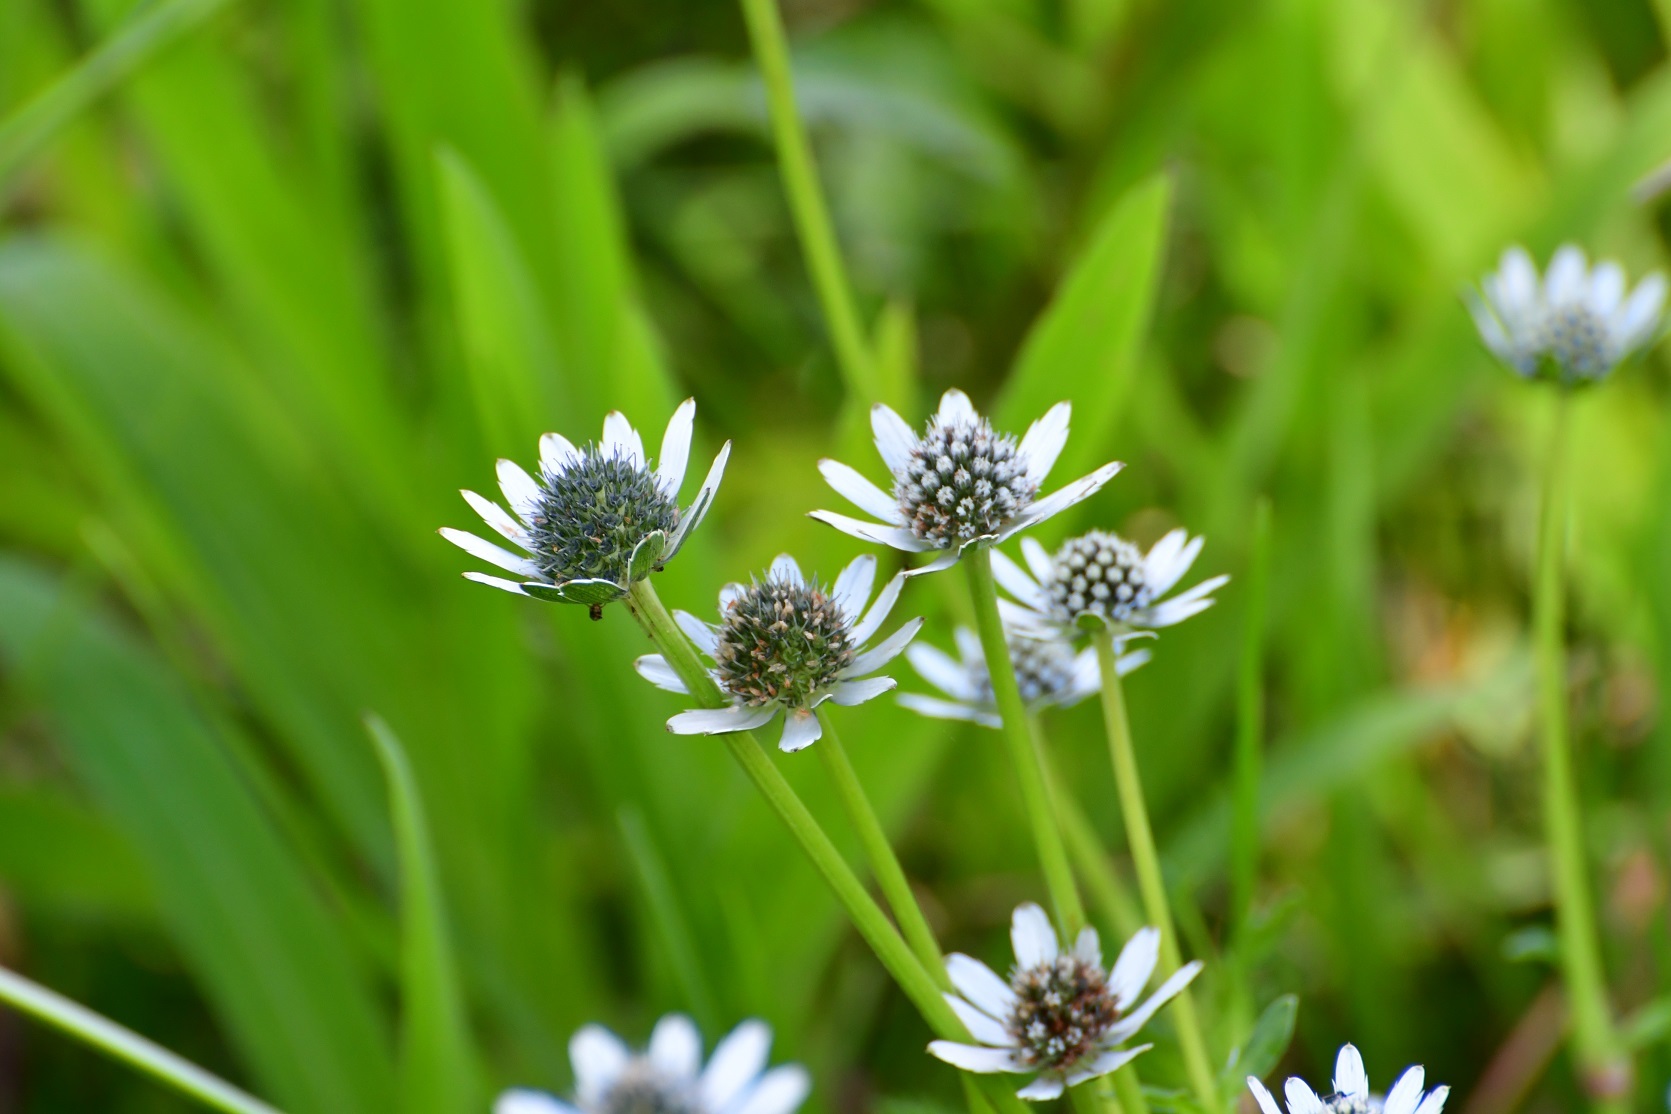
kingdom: Plantae
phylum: Tracheophyta
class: Magnoliopsida
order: Apiales
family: Apiaceae
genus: Eryngium
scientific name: Eryngium scaposum
